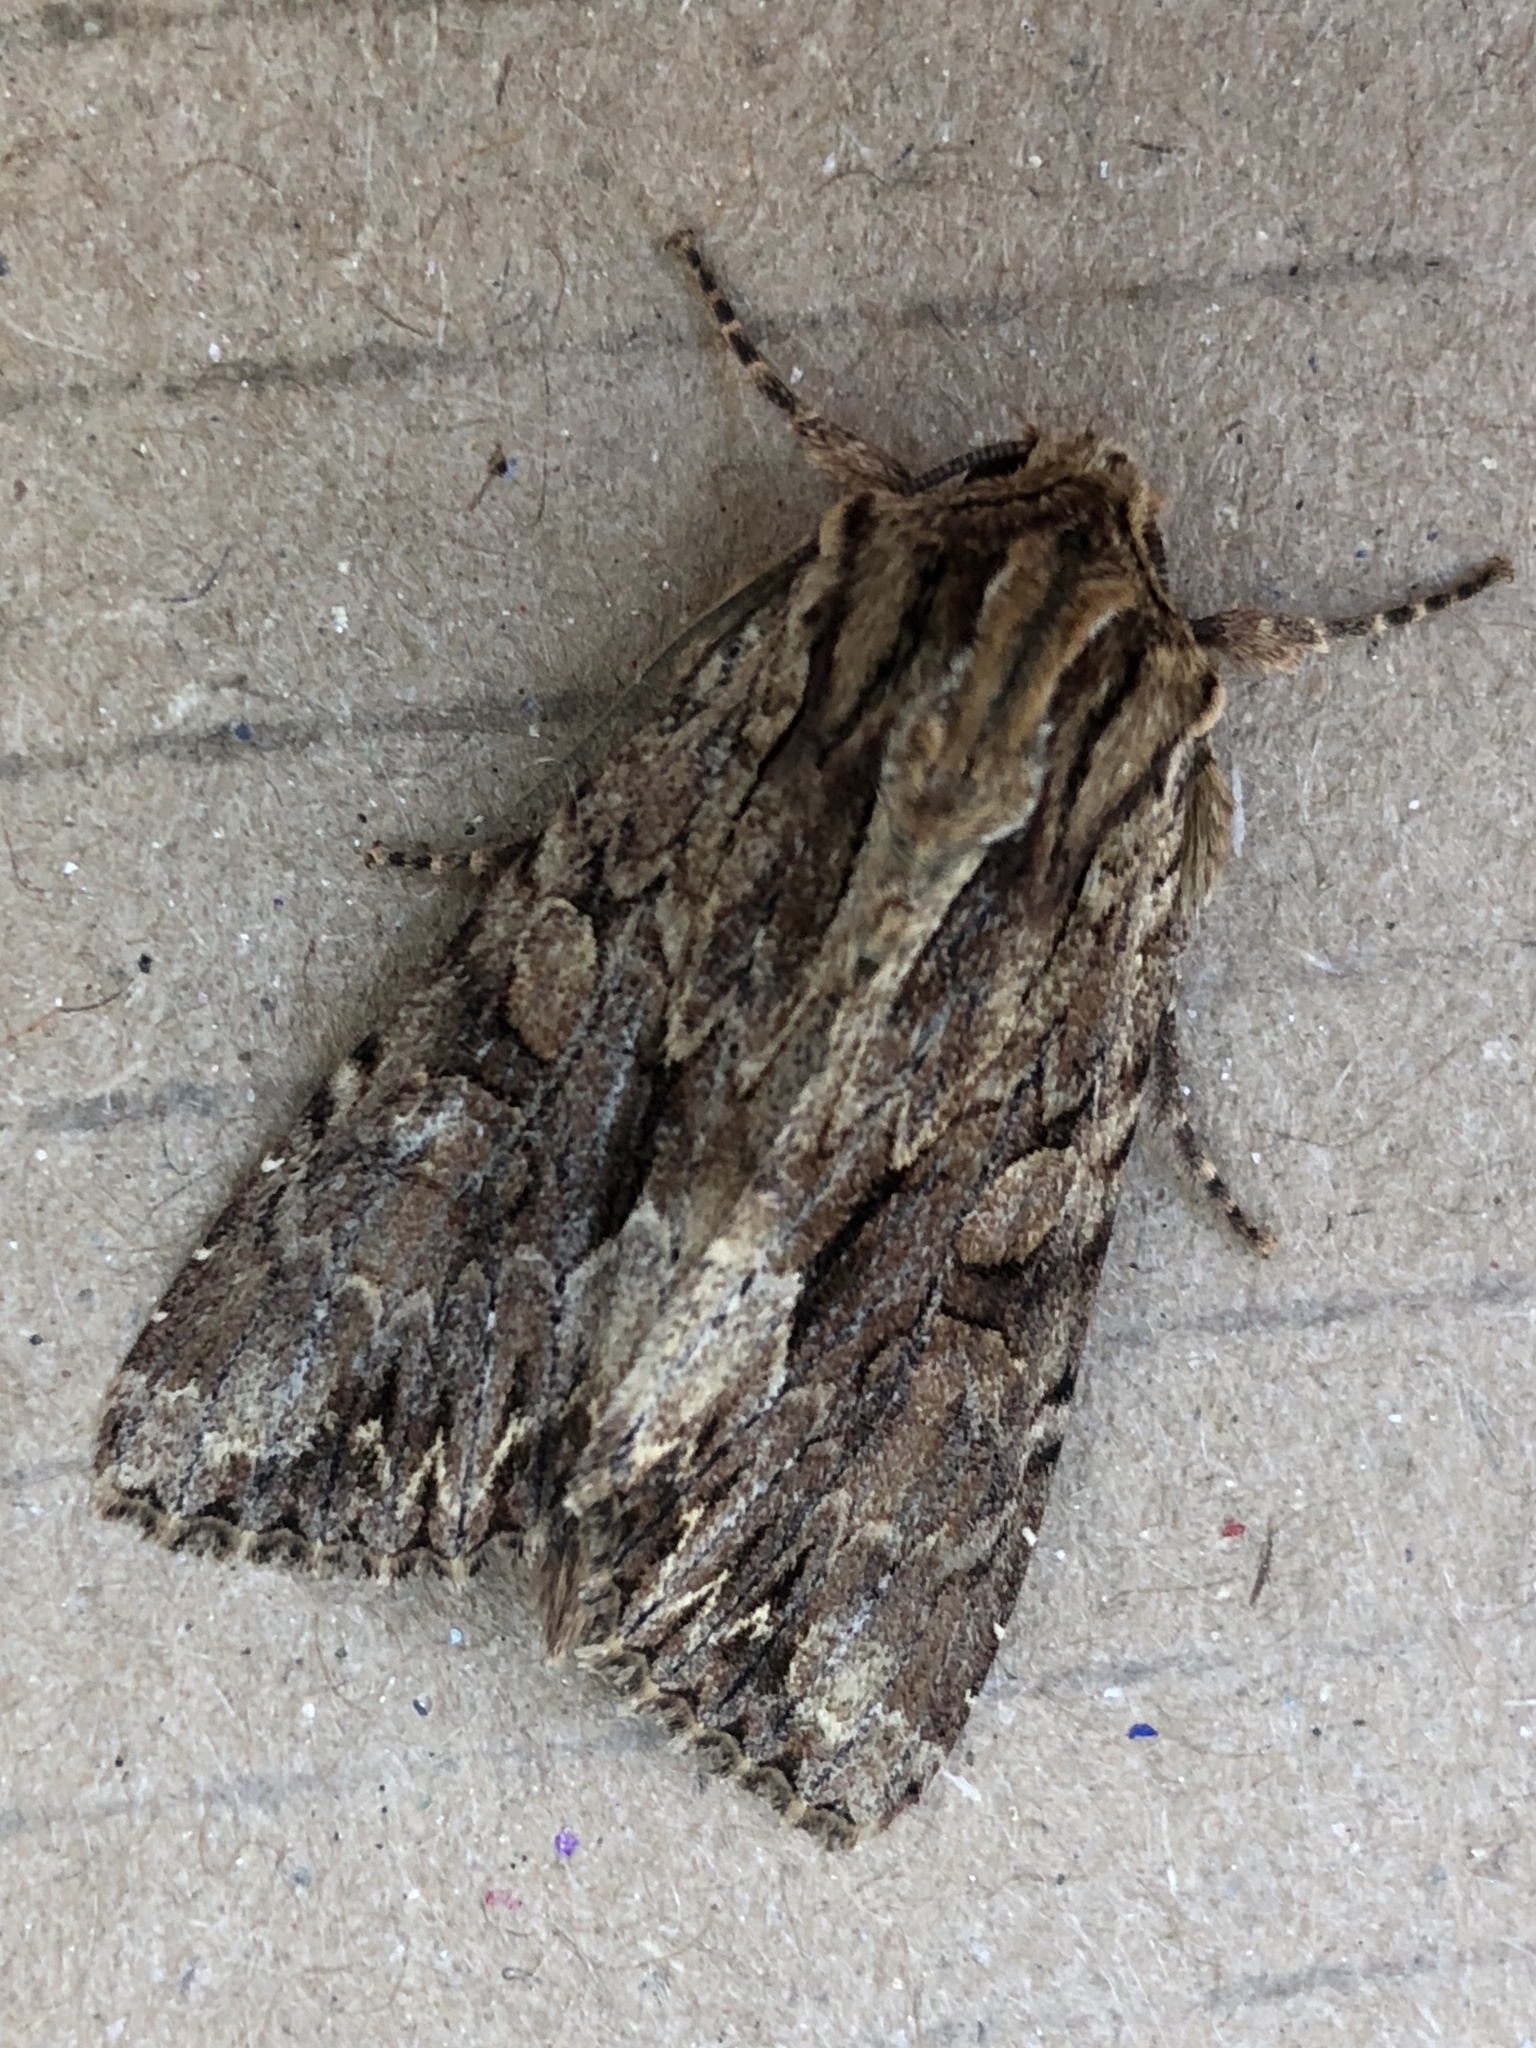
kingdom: Animalia
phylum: Arthropoda
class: Insecta
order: Lepidoptera
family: Noctuidae
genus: Apamea
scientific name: Apamea monoglypha
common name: Dark arches
